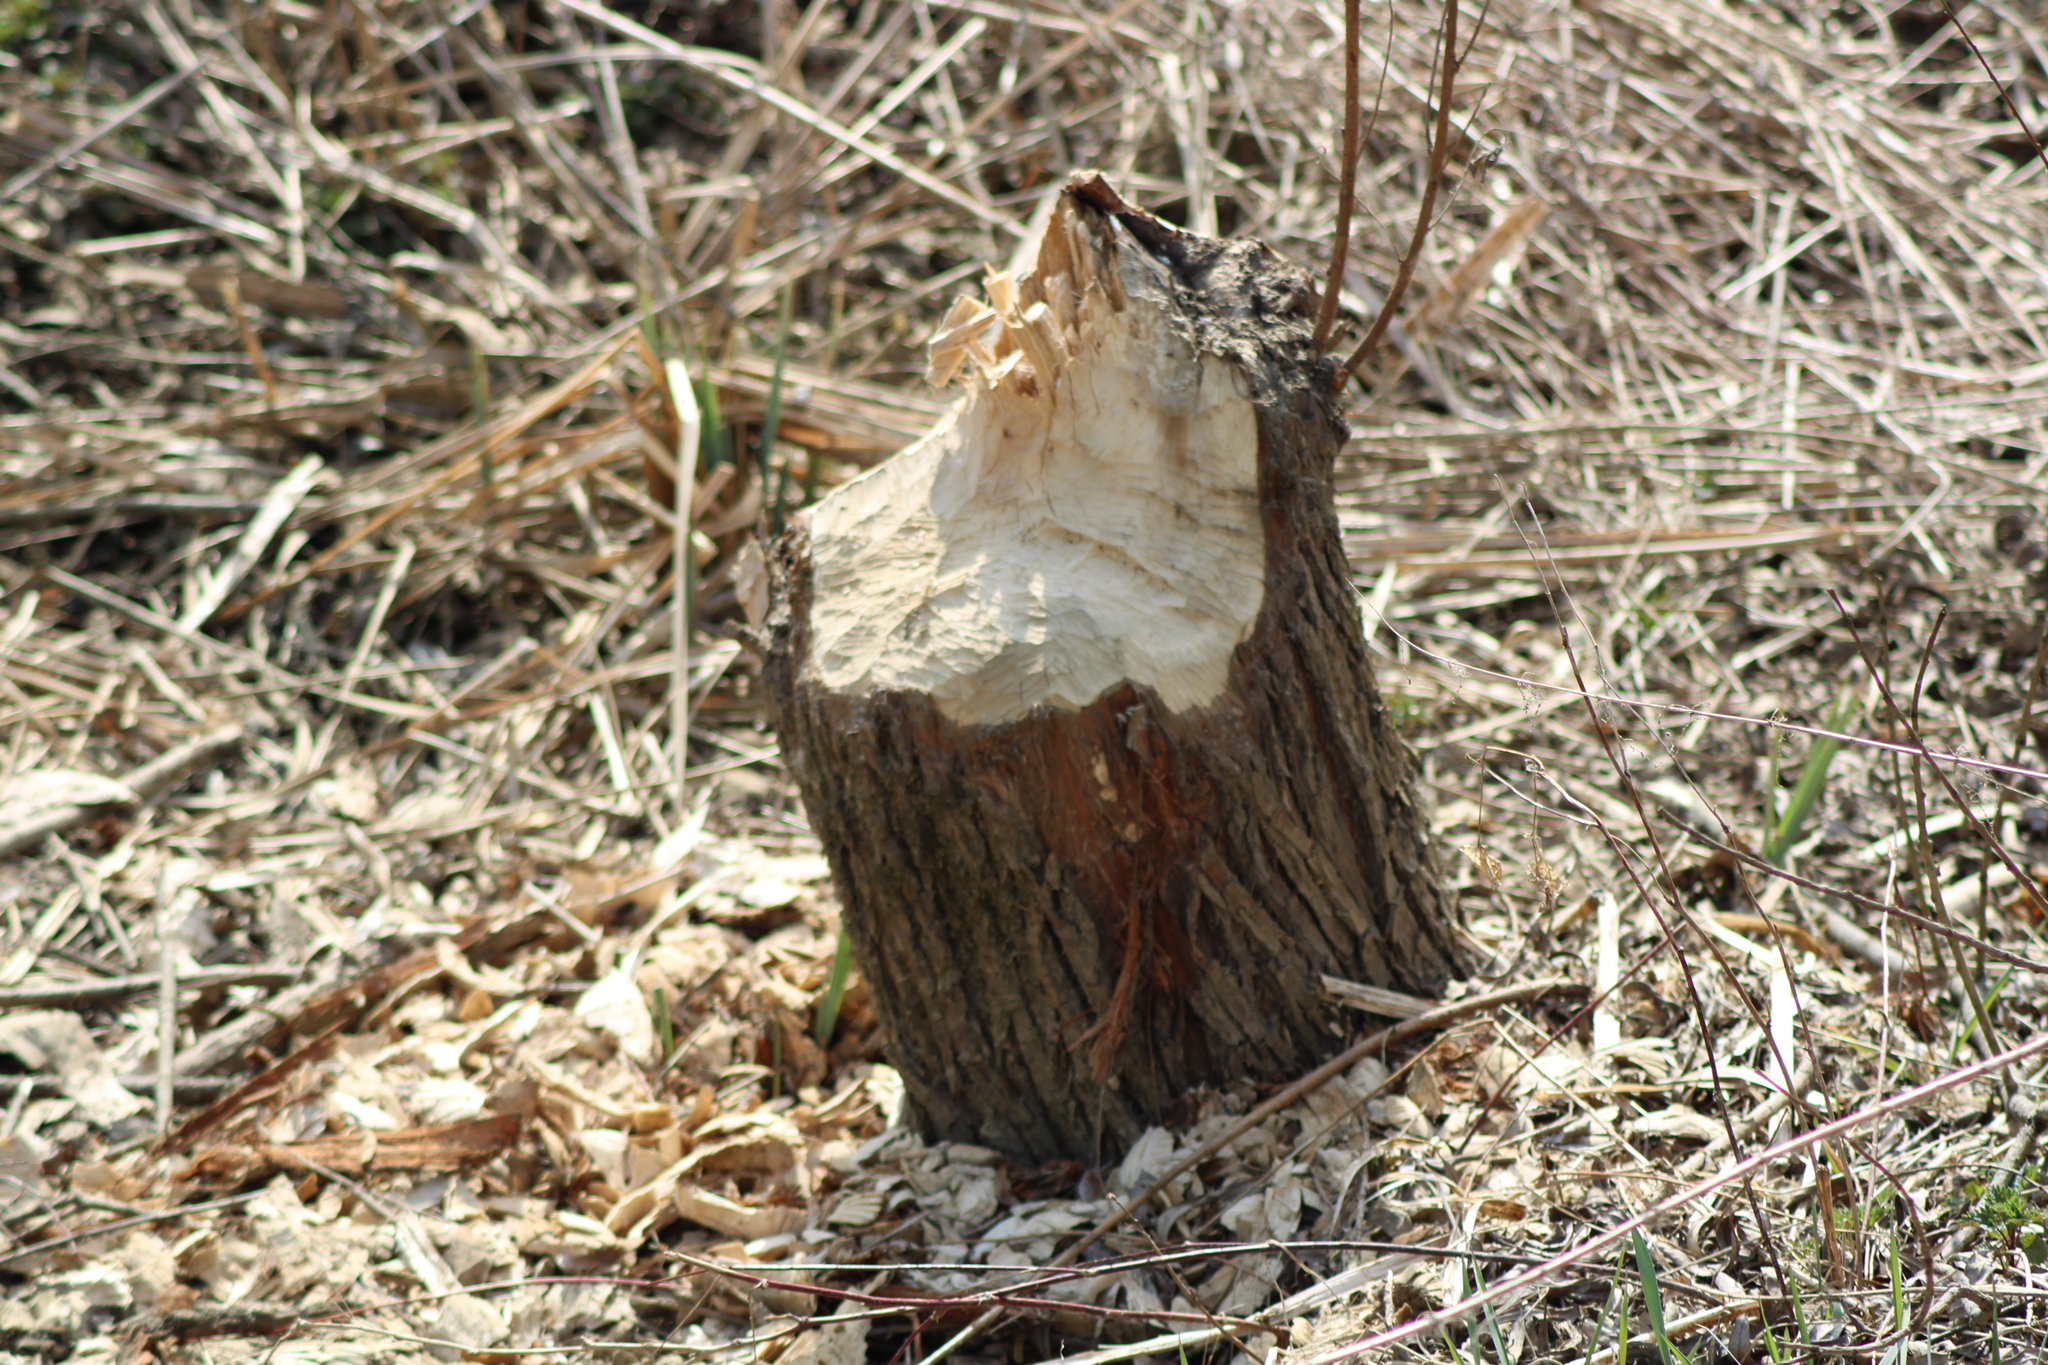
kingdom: Animalia
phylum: Chordata
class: Mammalia
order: Rodentia
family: Castoridae
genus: Castor
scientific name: Castor fiber
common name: Eurasian beaver
